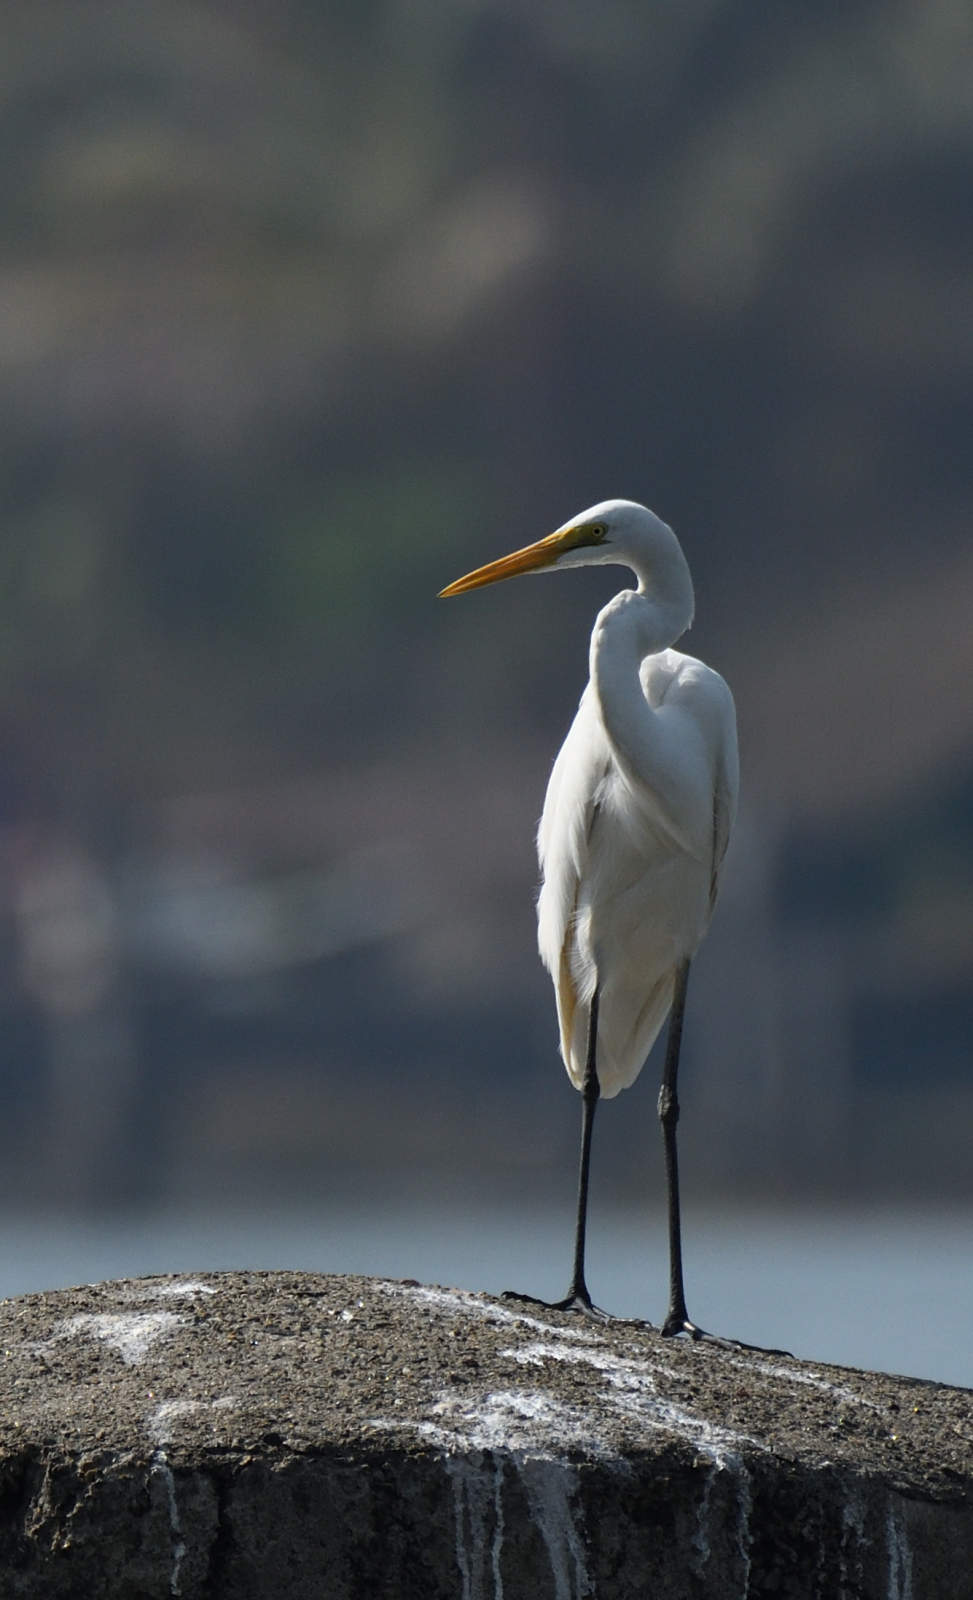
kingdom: Animalia
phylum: Chordata
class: Aves
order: Pelecaniformes
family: Ardeidae
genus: Ardea
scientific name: Ardea alba
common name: Great egret
